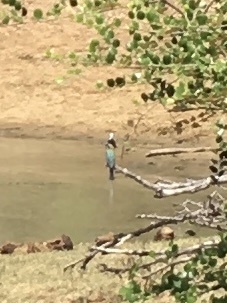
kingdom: Animalia
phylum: Chordata
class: Aves
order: Coraciiformes
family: Meropidae
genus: Merops
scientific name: Merops philippinus
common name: Blue-tailed bee-eater
